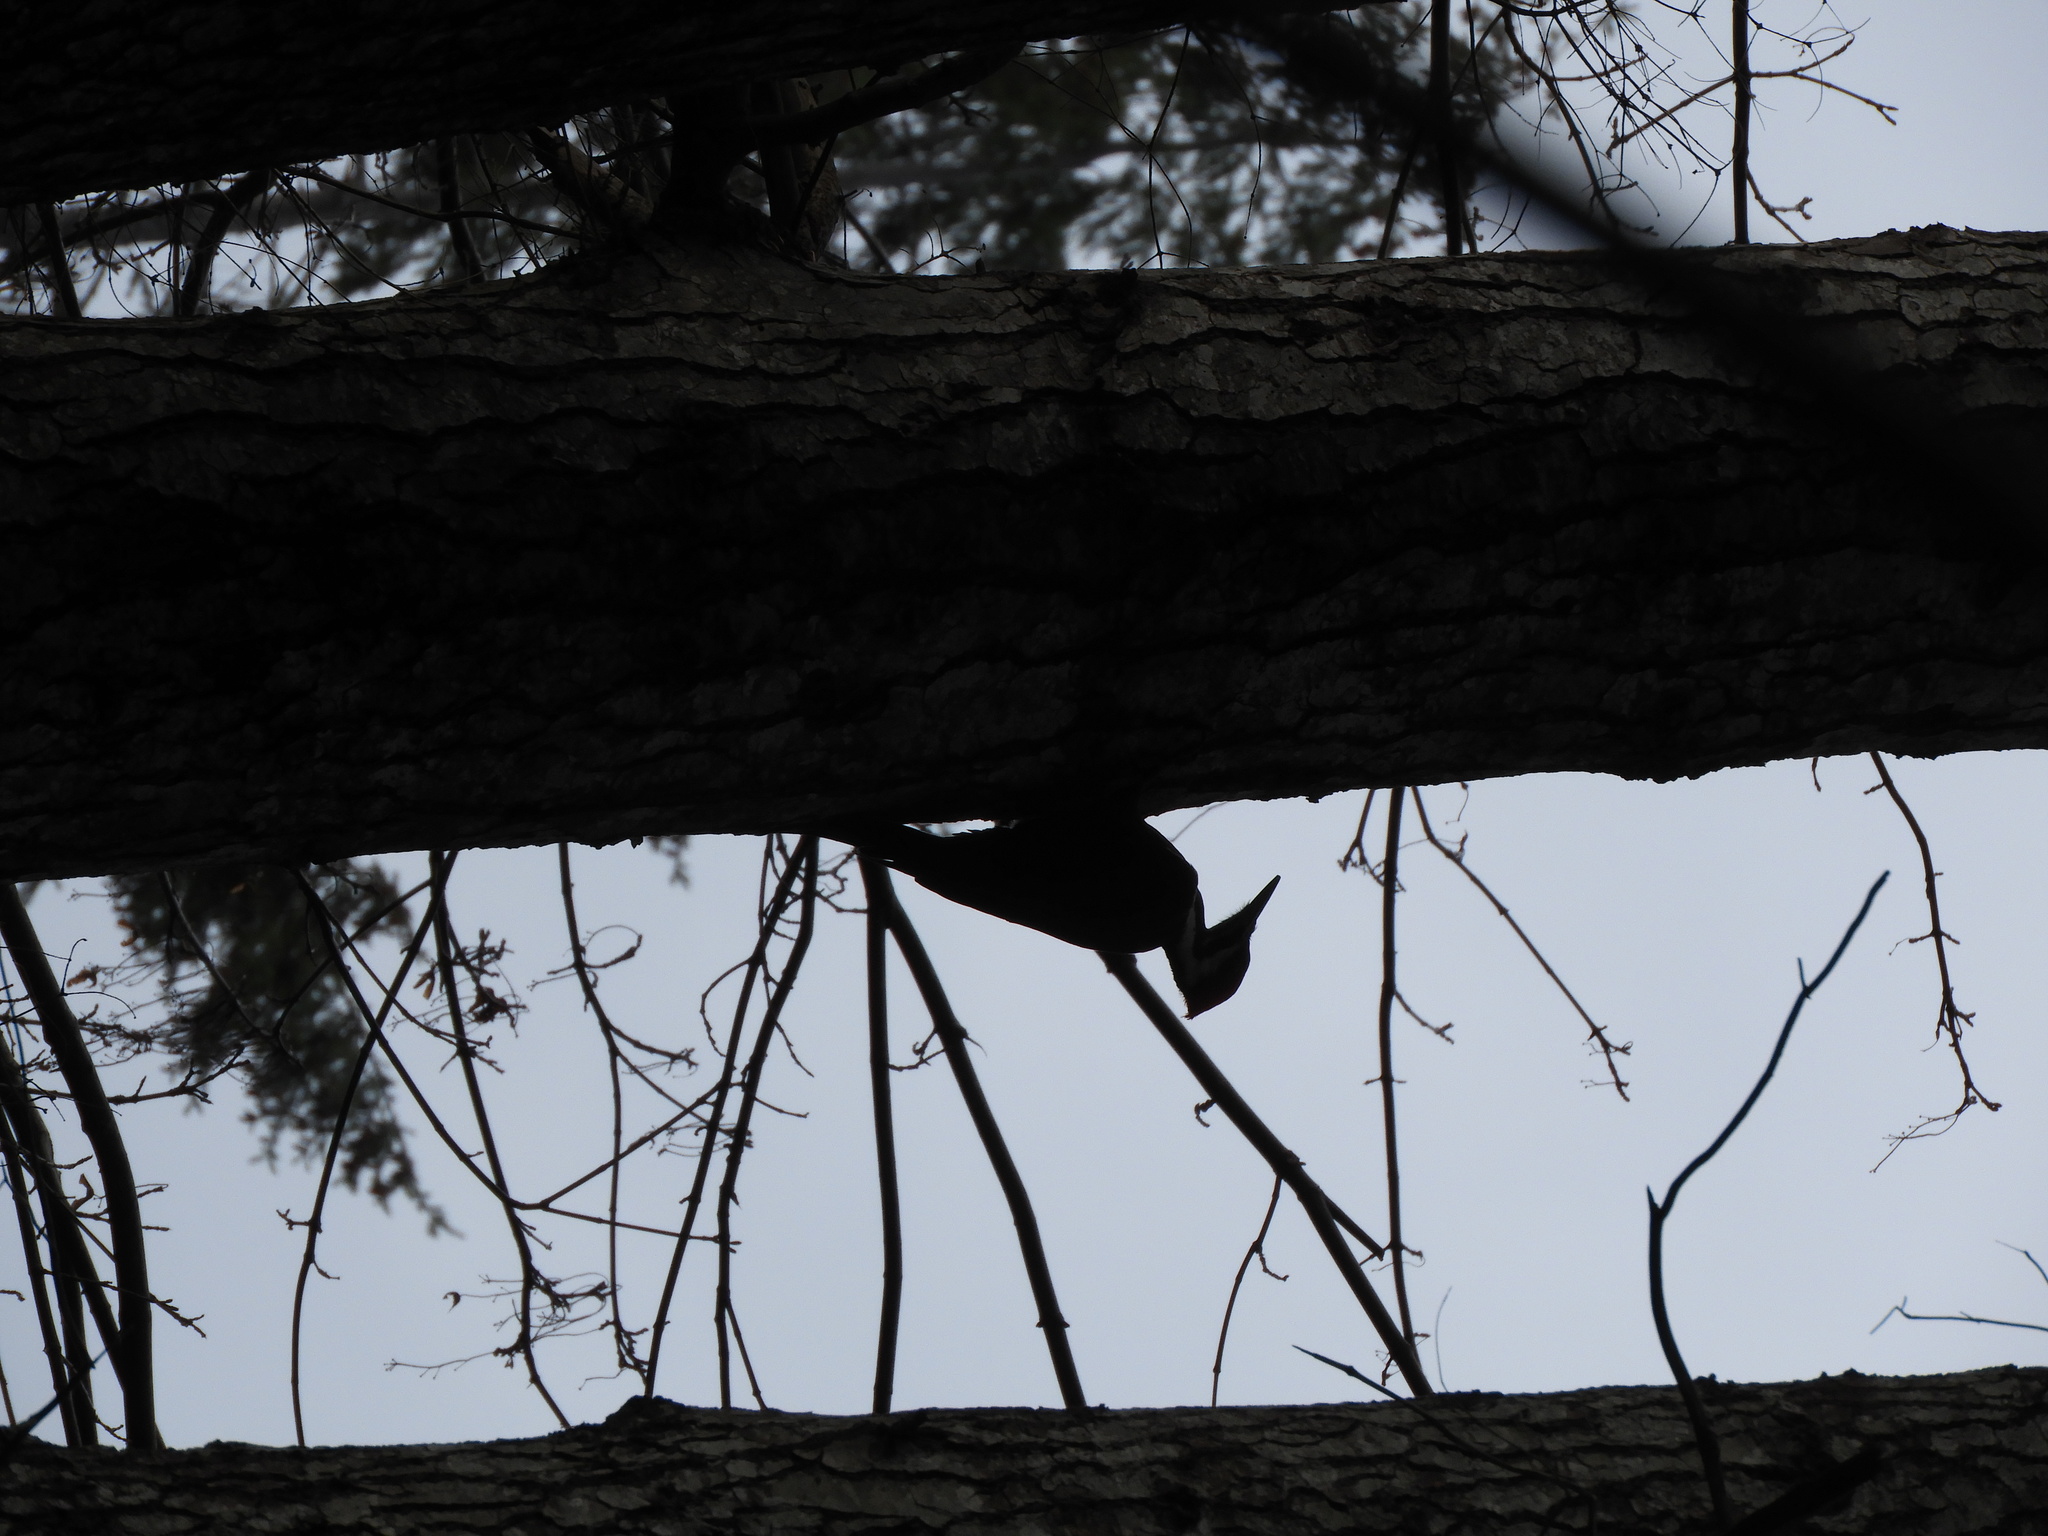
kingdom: Animalia
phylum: Chordata
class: Aves
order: Piciformes
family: Picidae
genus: Dryocopus
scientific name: Dryocopus pileatus
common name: Pileated woodpecker
